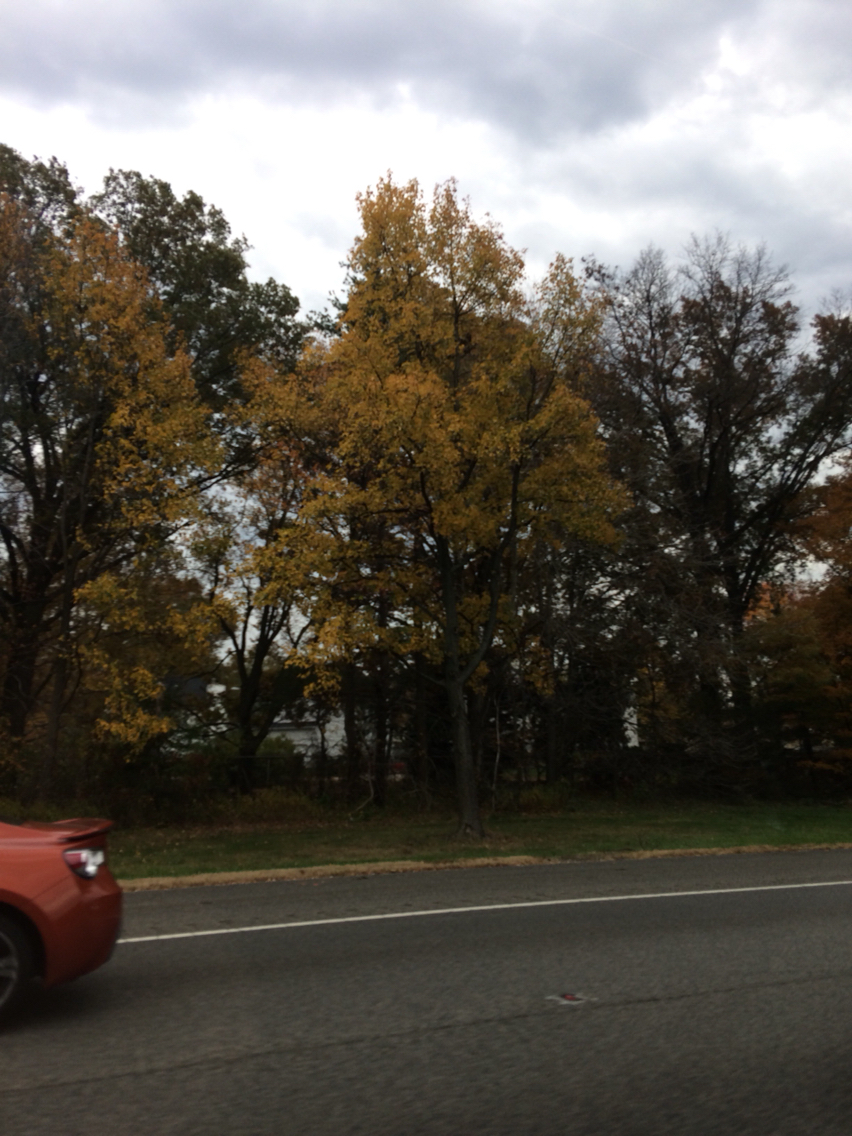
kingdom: Plantae
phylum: Tracheophyta
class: Magnoliopsida
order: Saxifragales
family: Altingiaceae
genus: Liquidambar
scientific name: Liquidambar styraciflua
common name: Sweet gum
